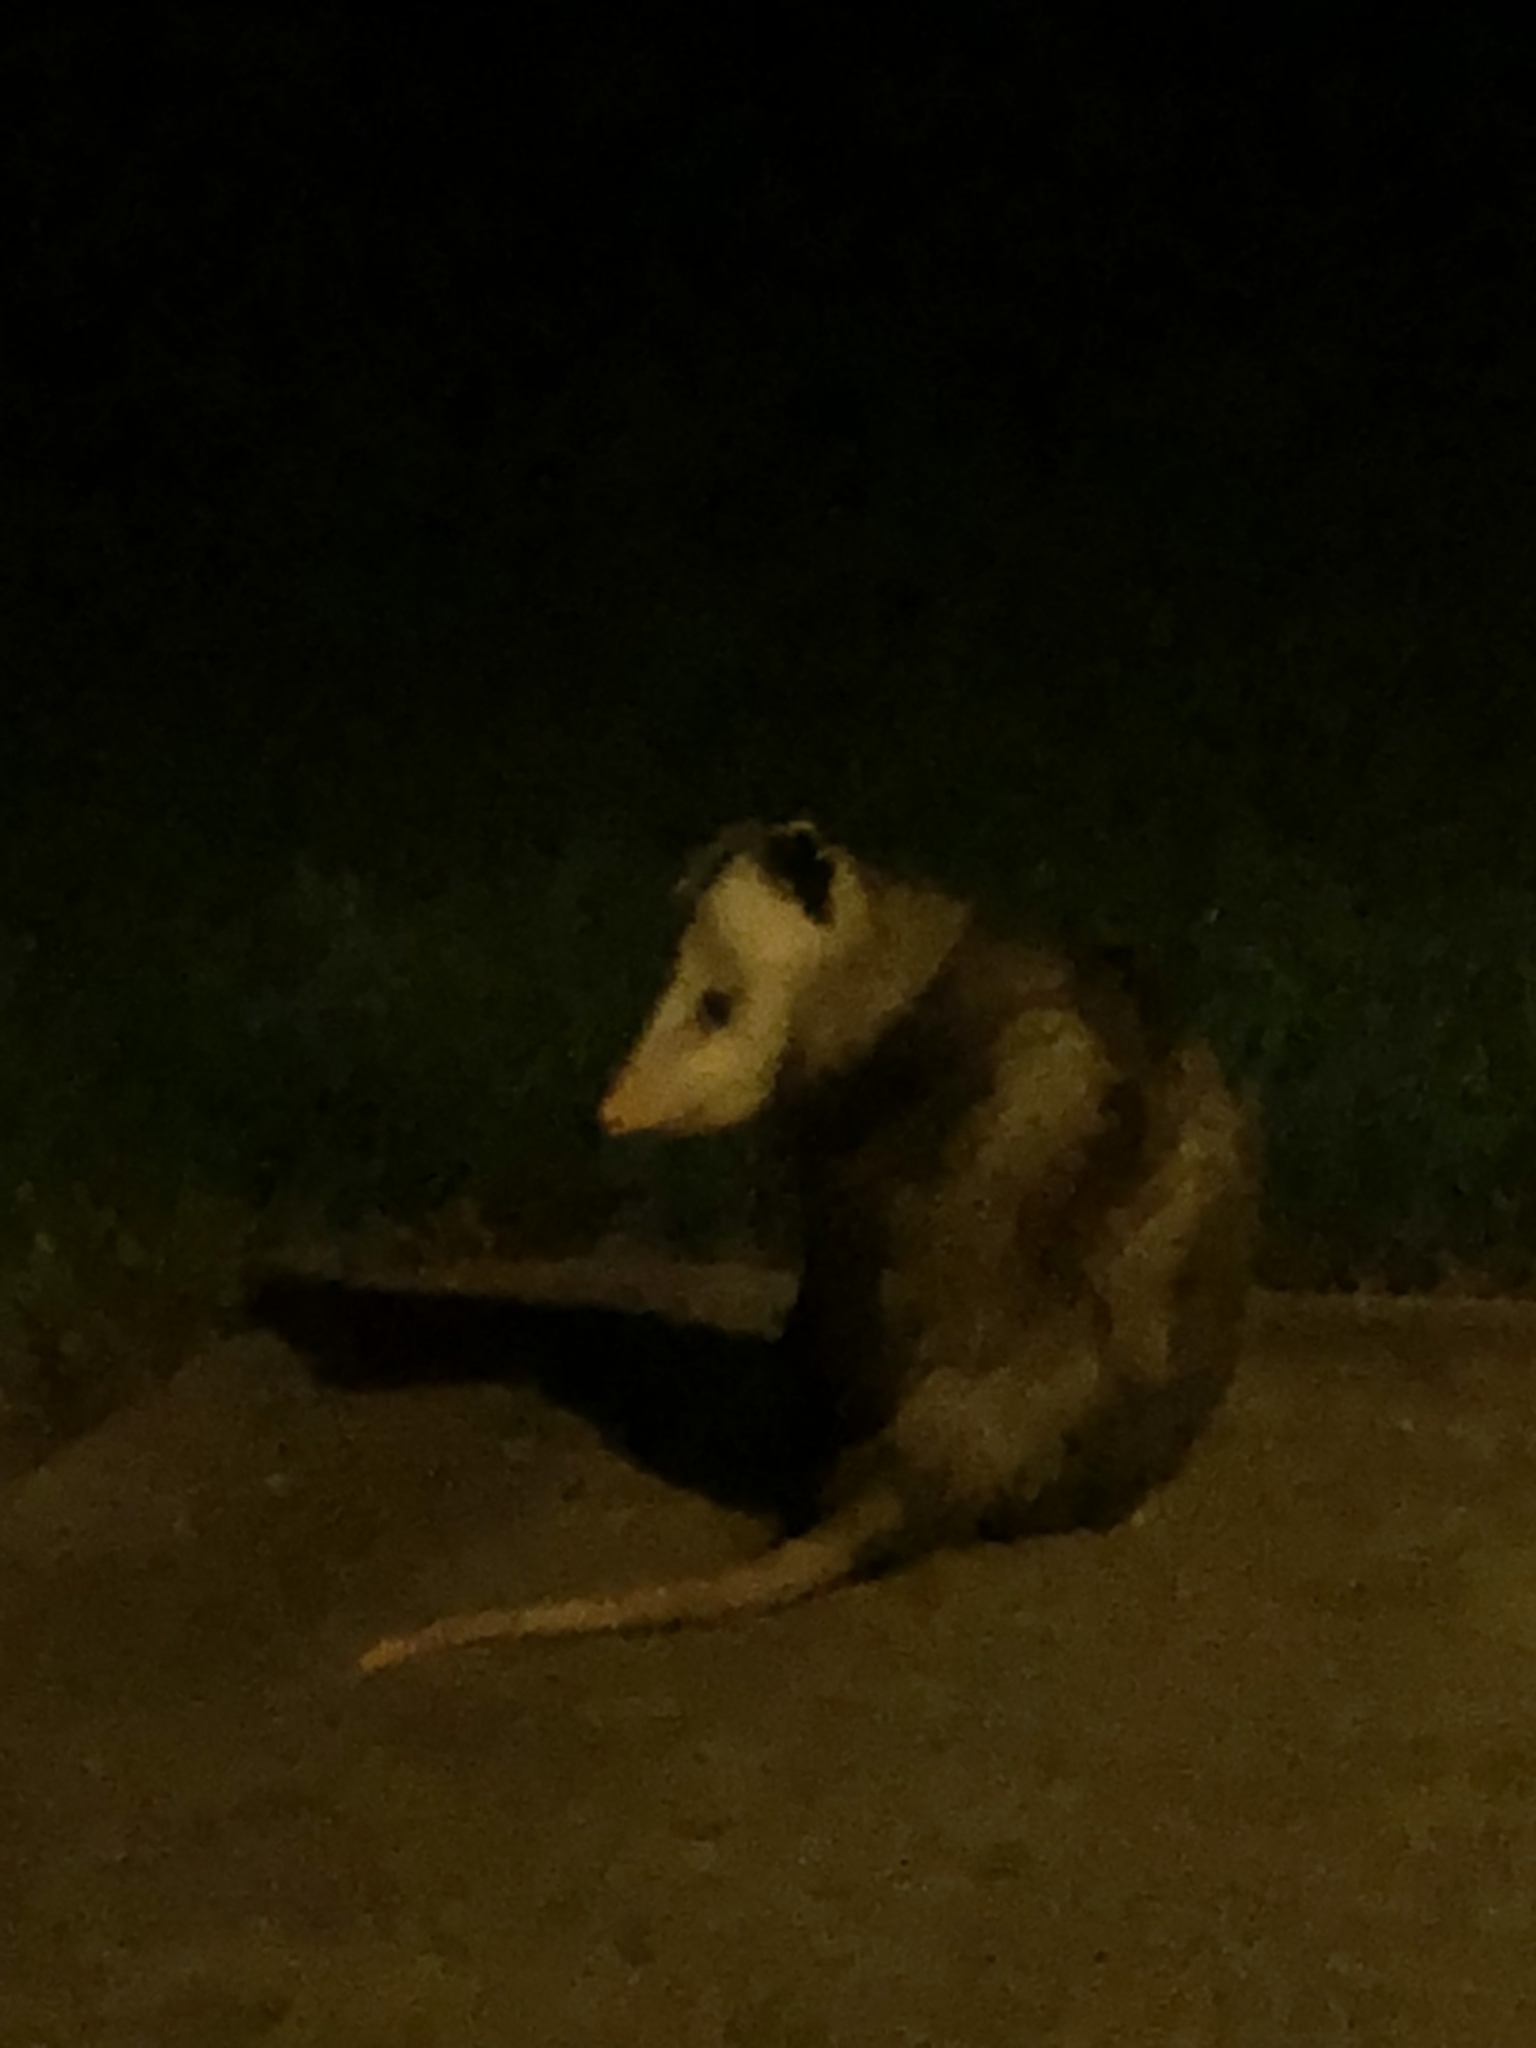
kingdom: Animalia
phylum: Chordata
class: Mammalia
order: Didelphimorphia
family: Didelphidae
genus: Didelphis
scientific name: Didelphis virginiana
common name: Virginia opossum
